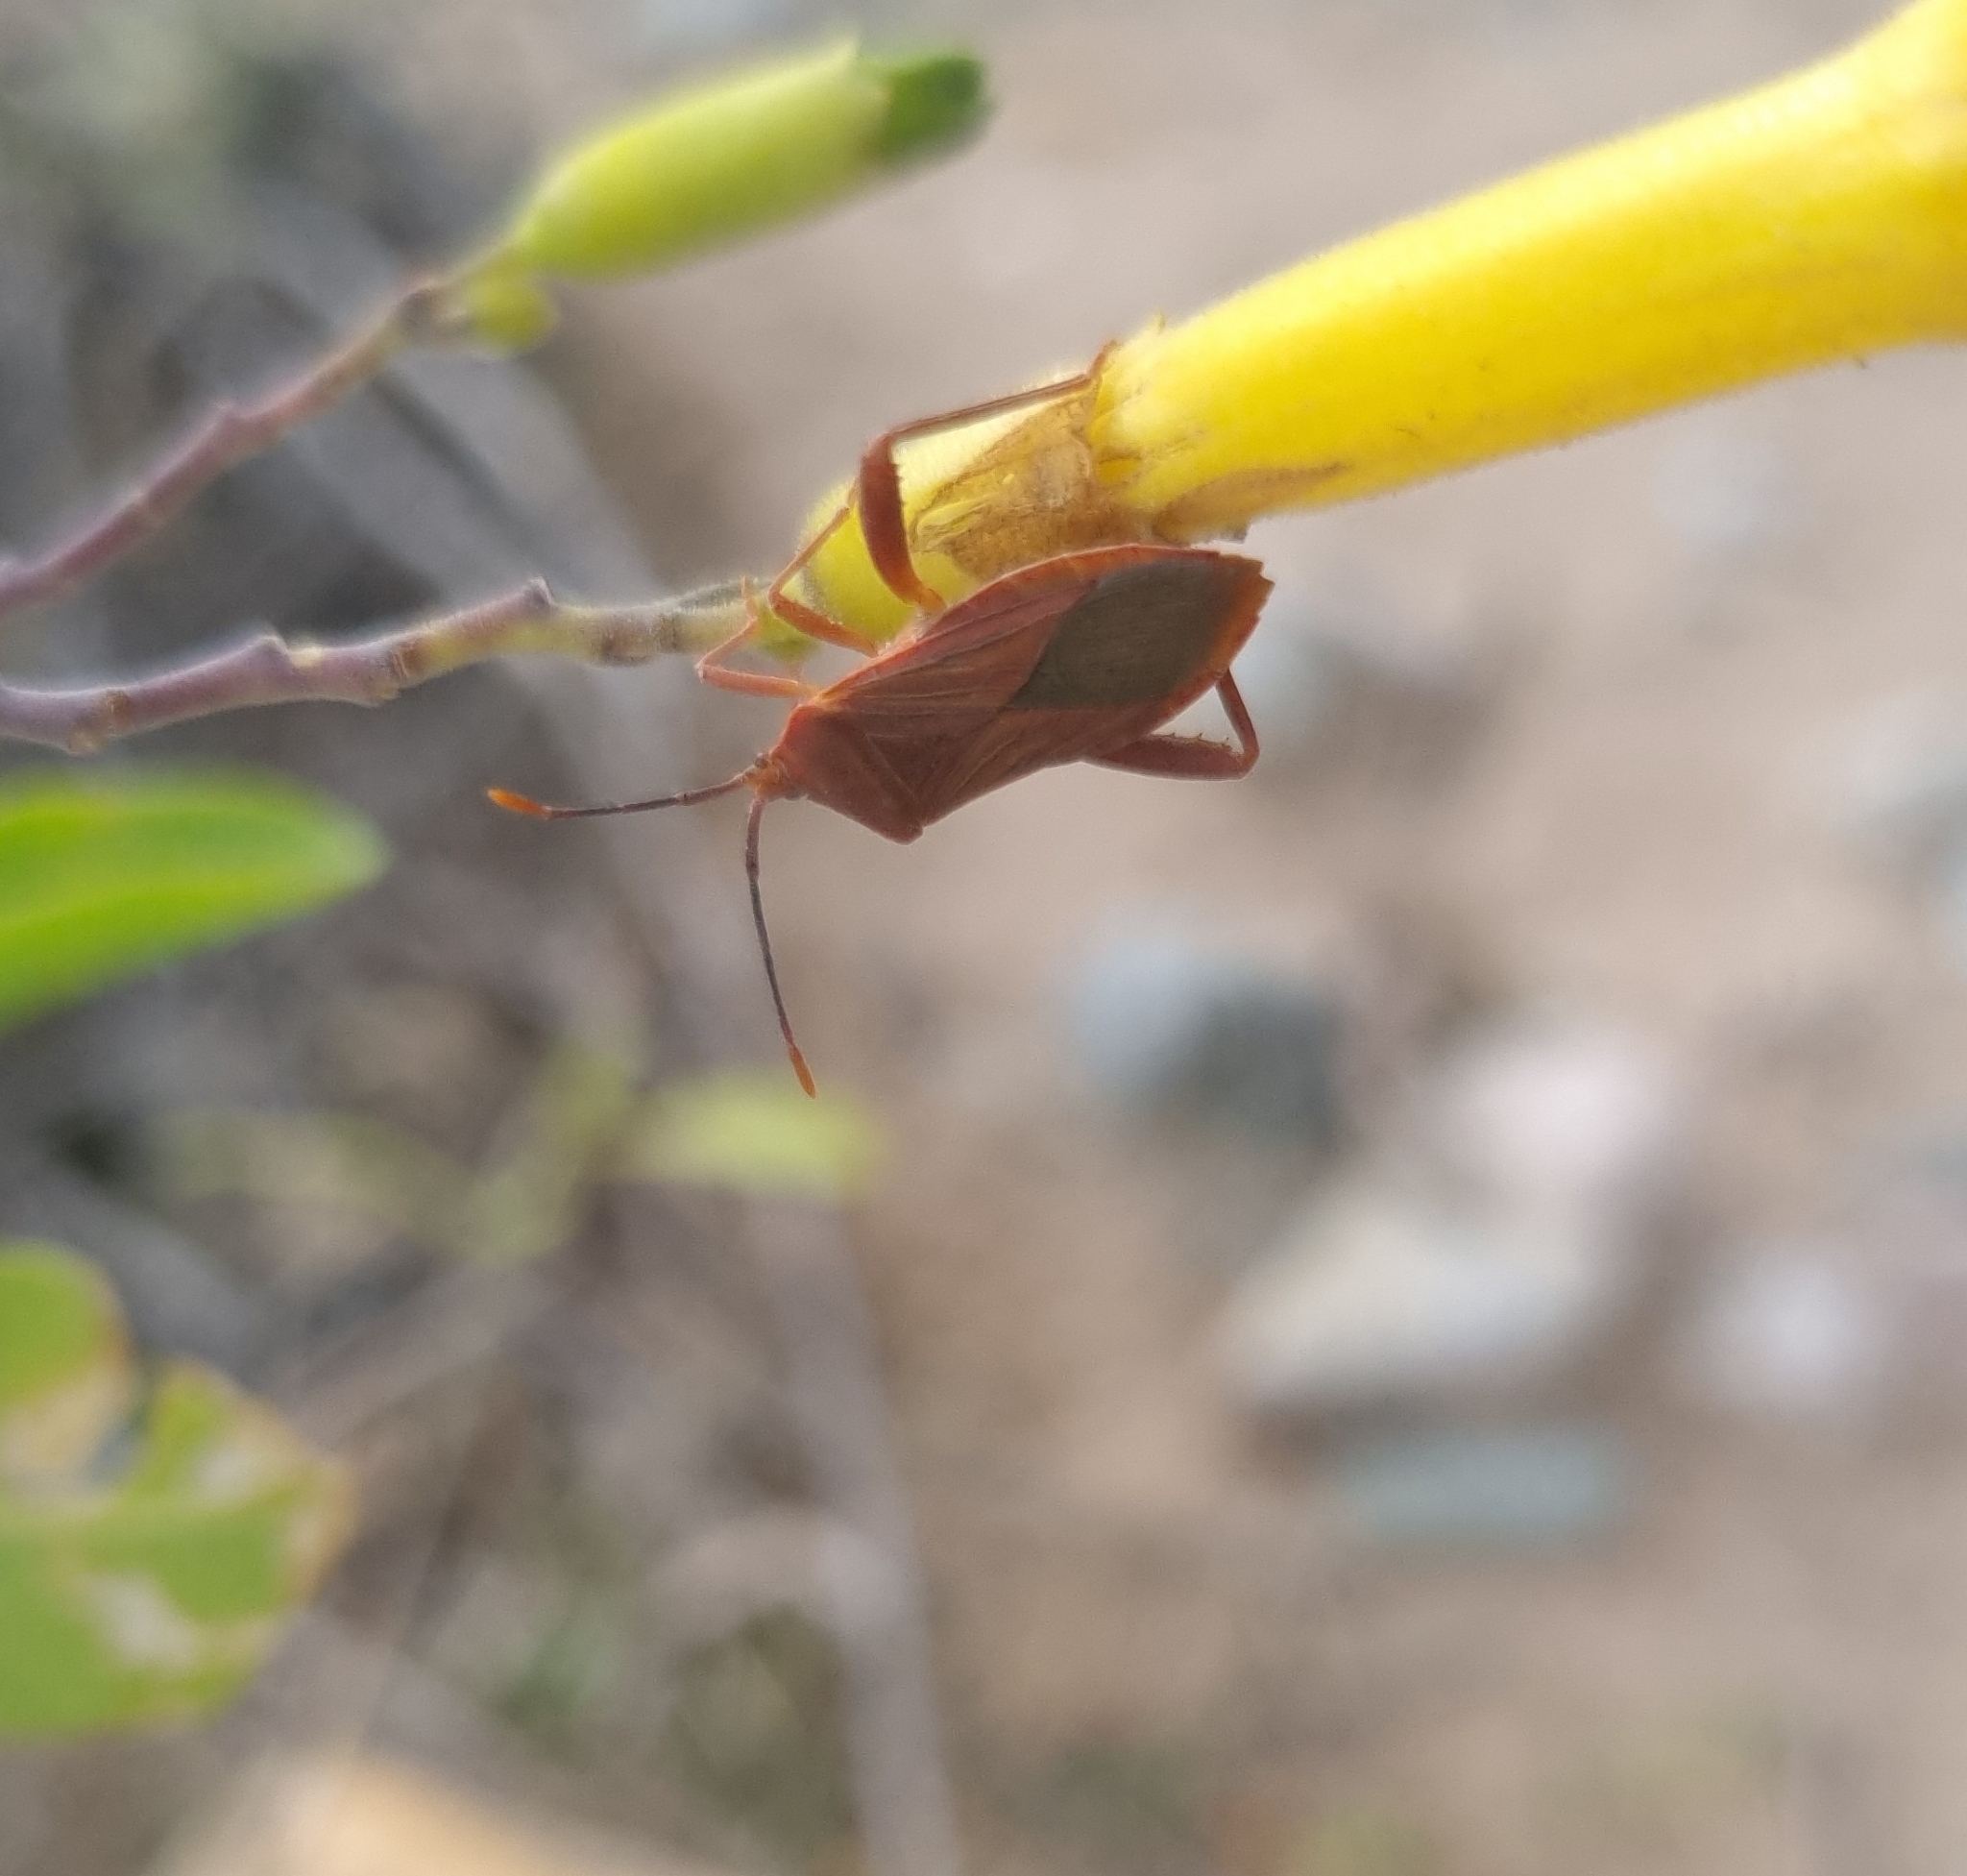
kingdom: Animalia
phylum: Arthropoda
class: Insecta
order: Hemiptera
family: Coreidae
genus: Athaumastus
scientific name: Athaumastus haematicus
